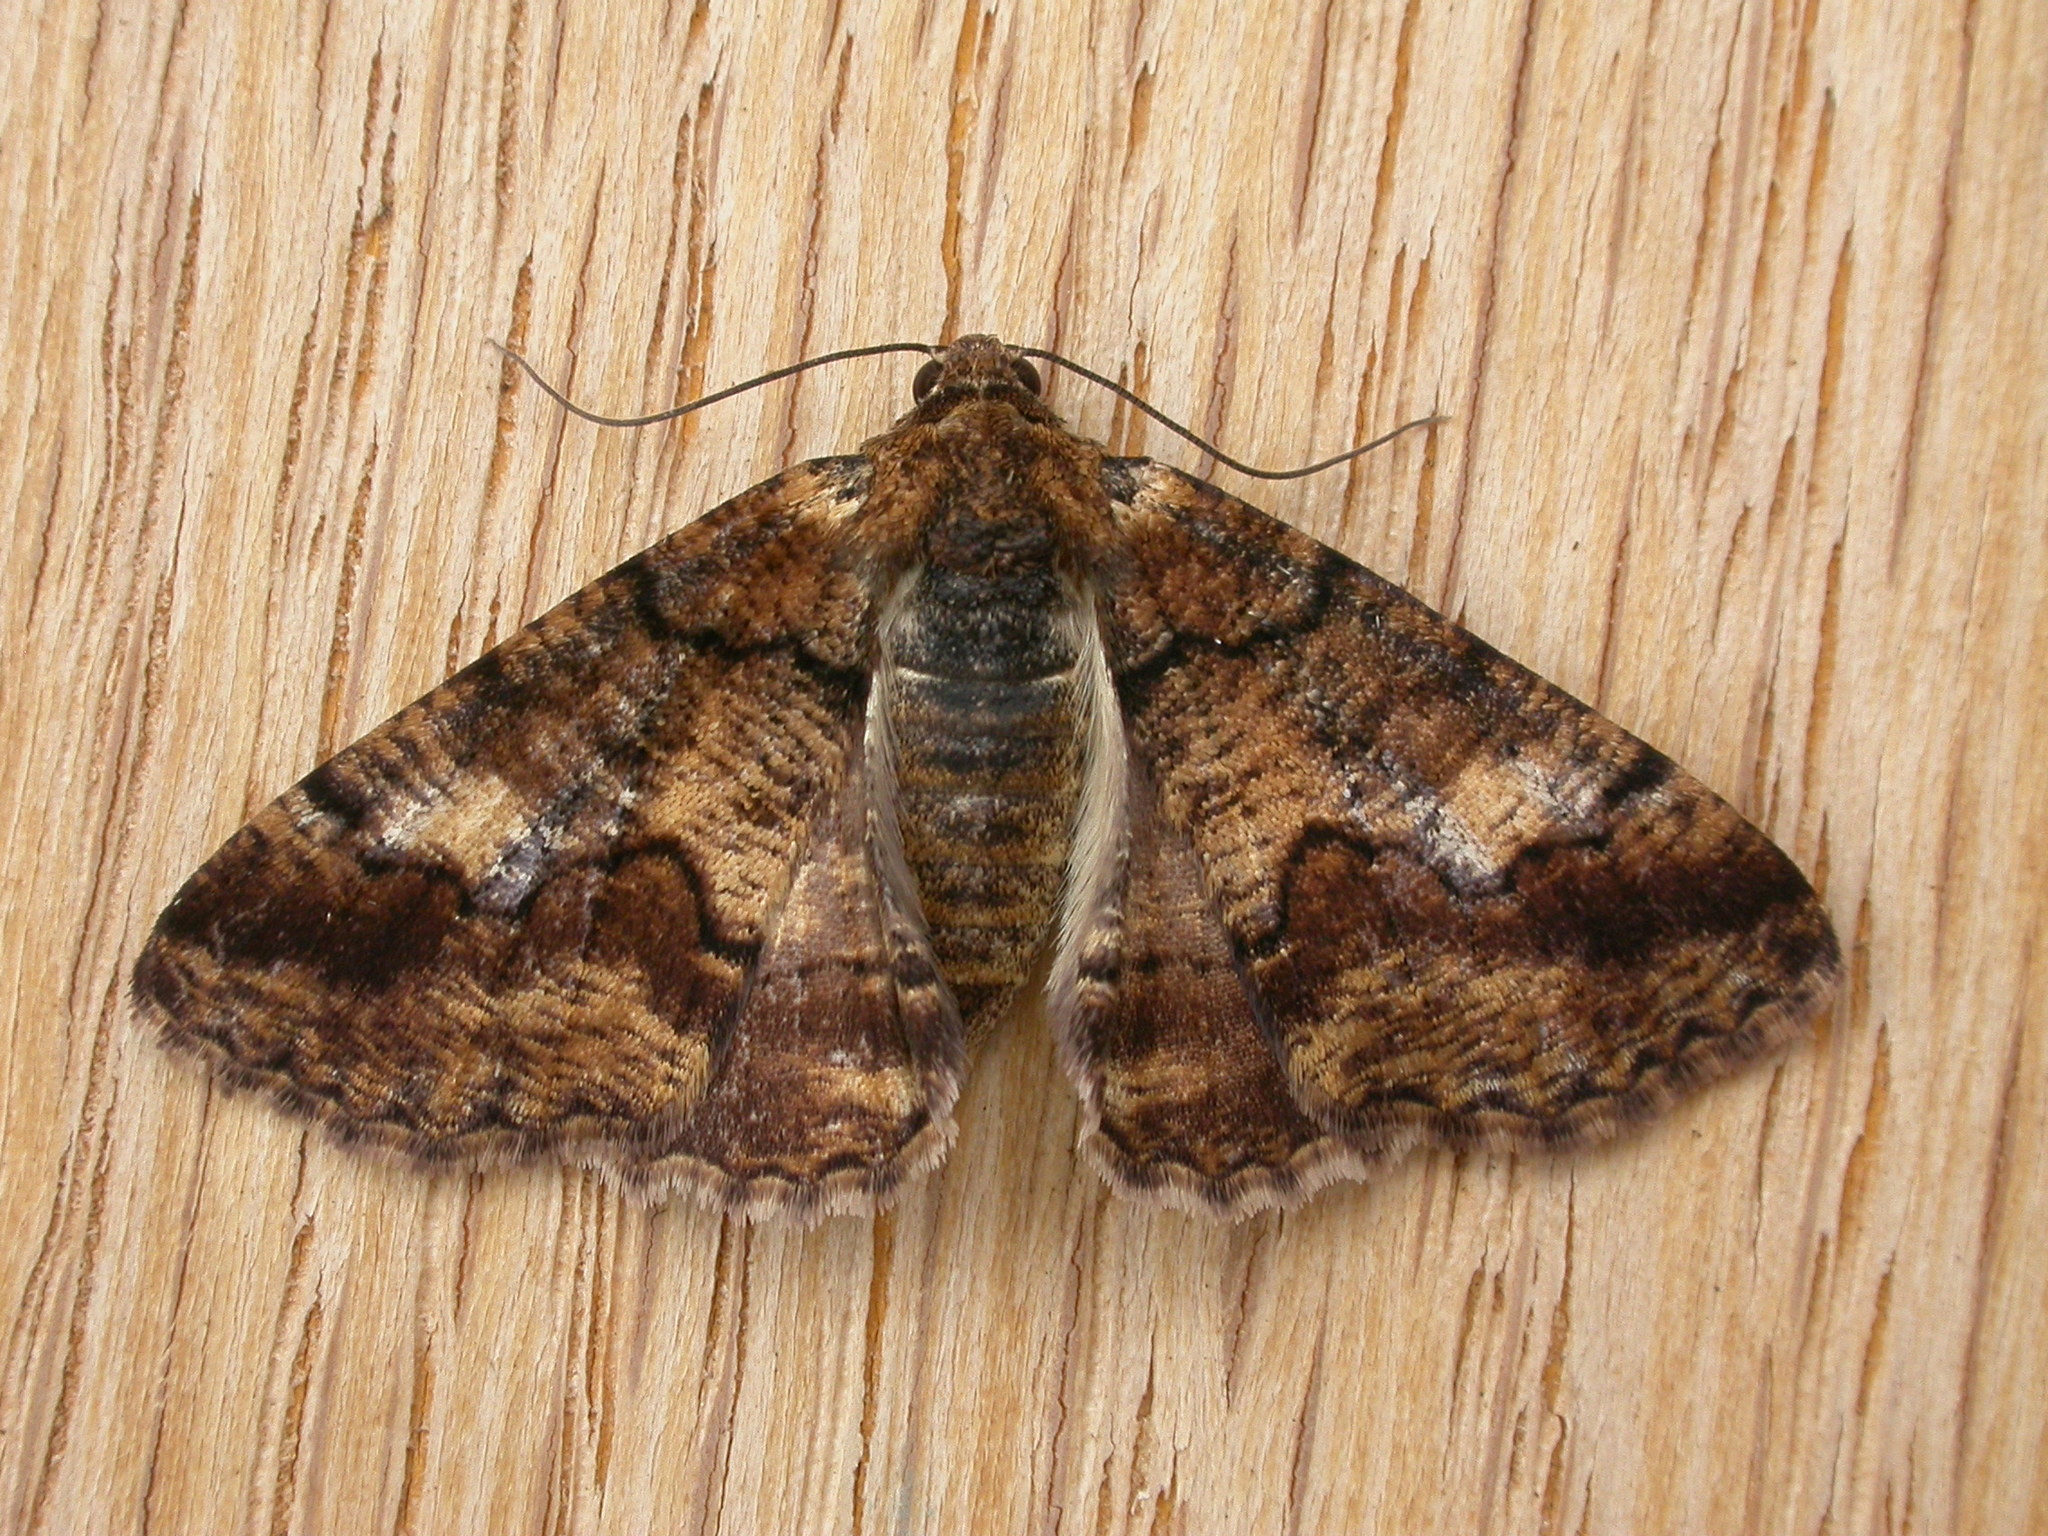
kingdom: Animalia
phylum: Arthropoda
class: Insecta
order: Lepidoptera
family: Geometridae
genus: Cryphaea
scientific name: Cryphaea xylina
